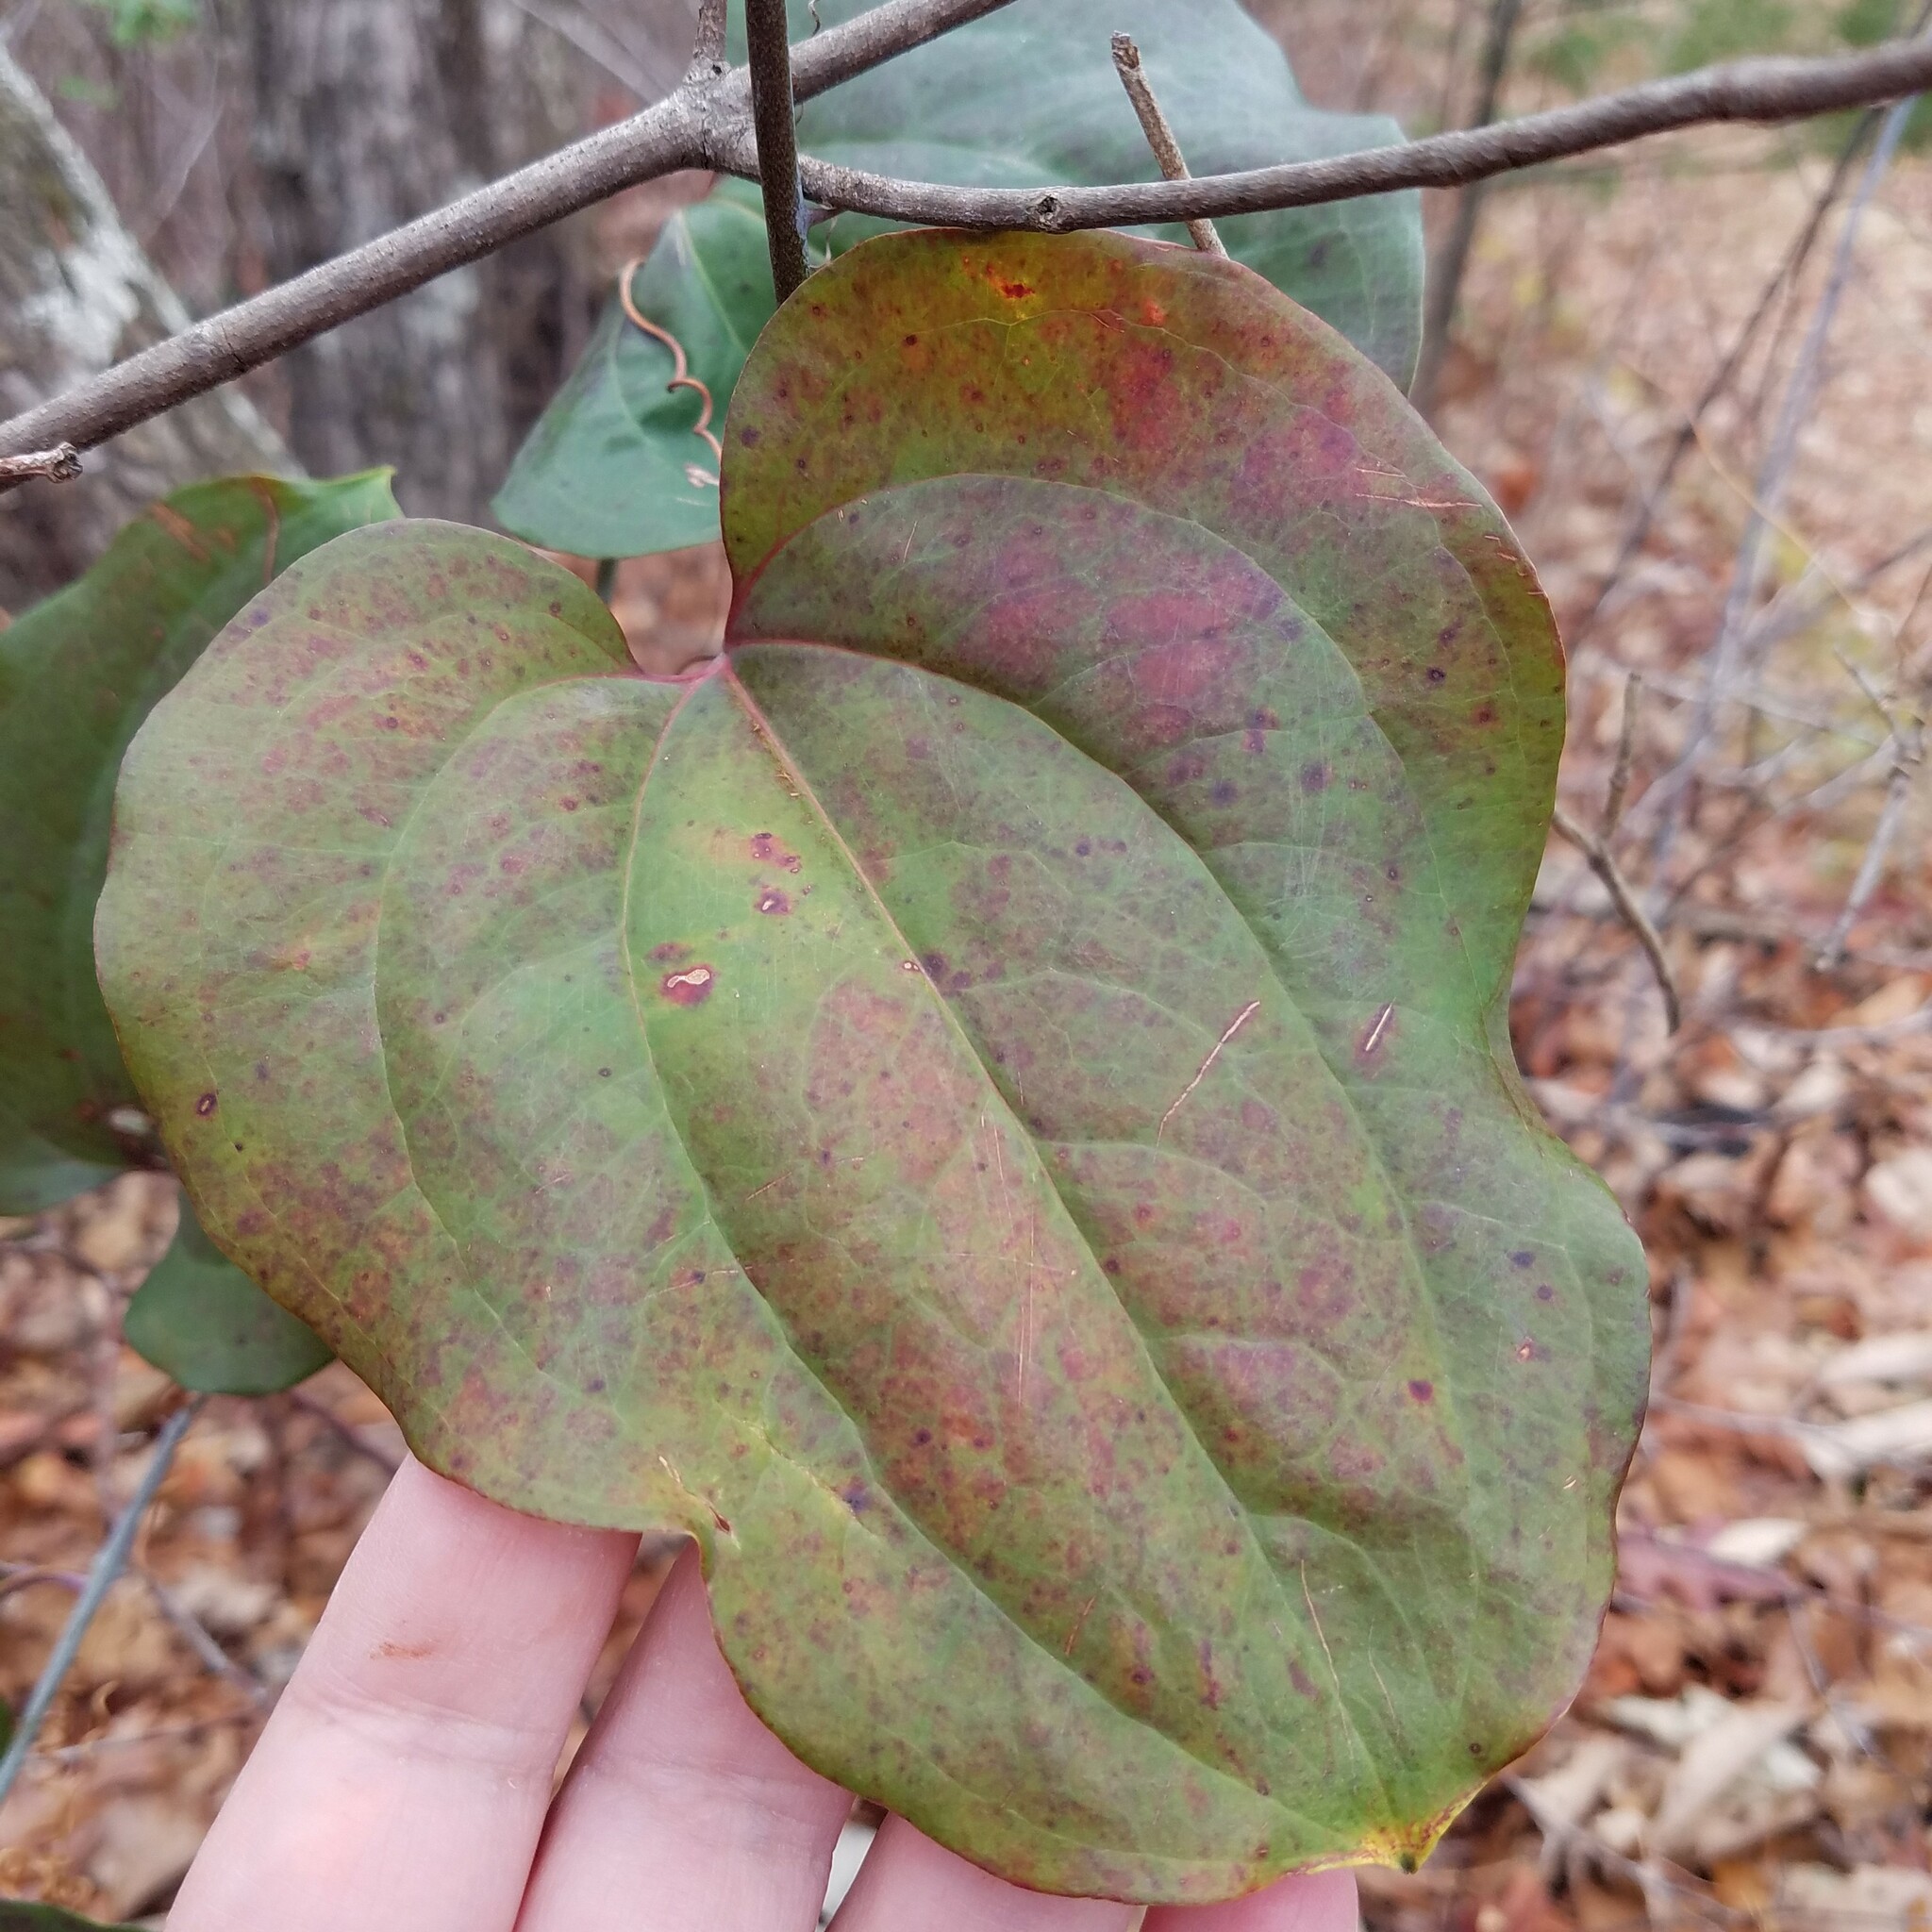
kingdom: Plantae
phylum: Tracheophyta
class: Liliopsida
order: Liliales
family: Smilacaceae
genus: Smilax
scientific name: Smilax glauca
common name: Cat greenbrier
